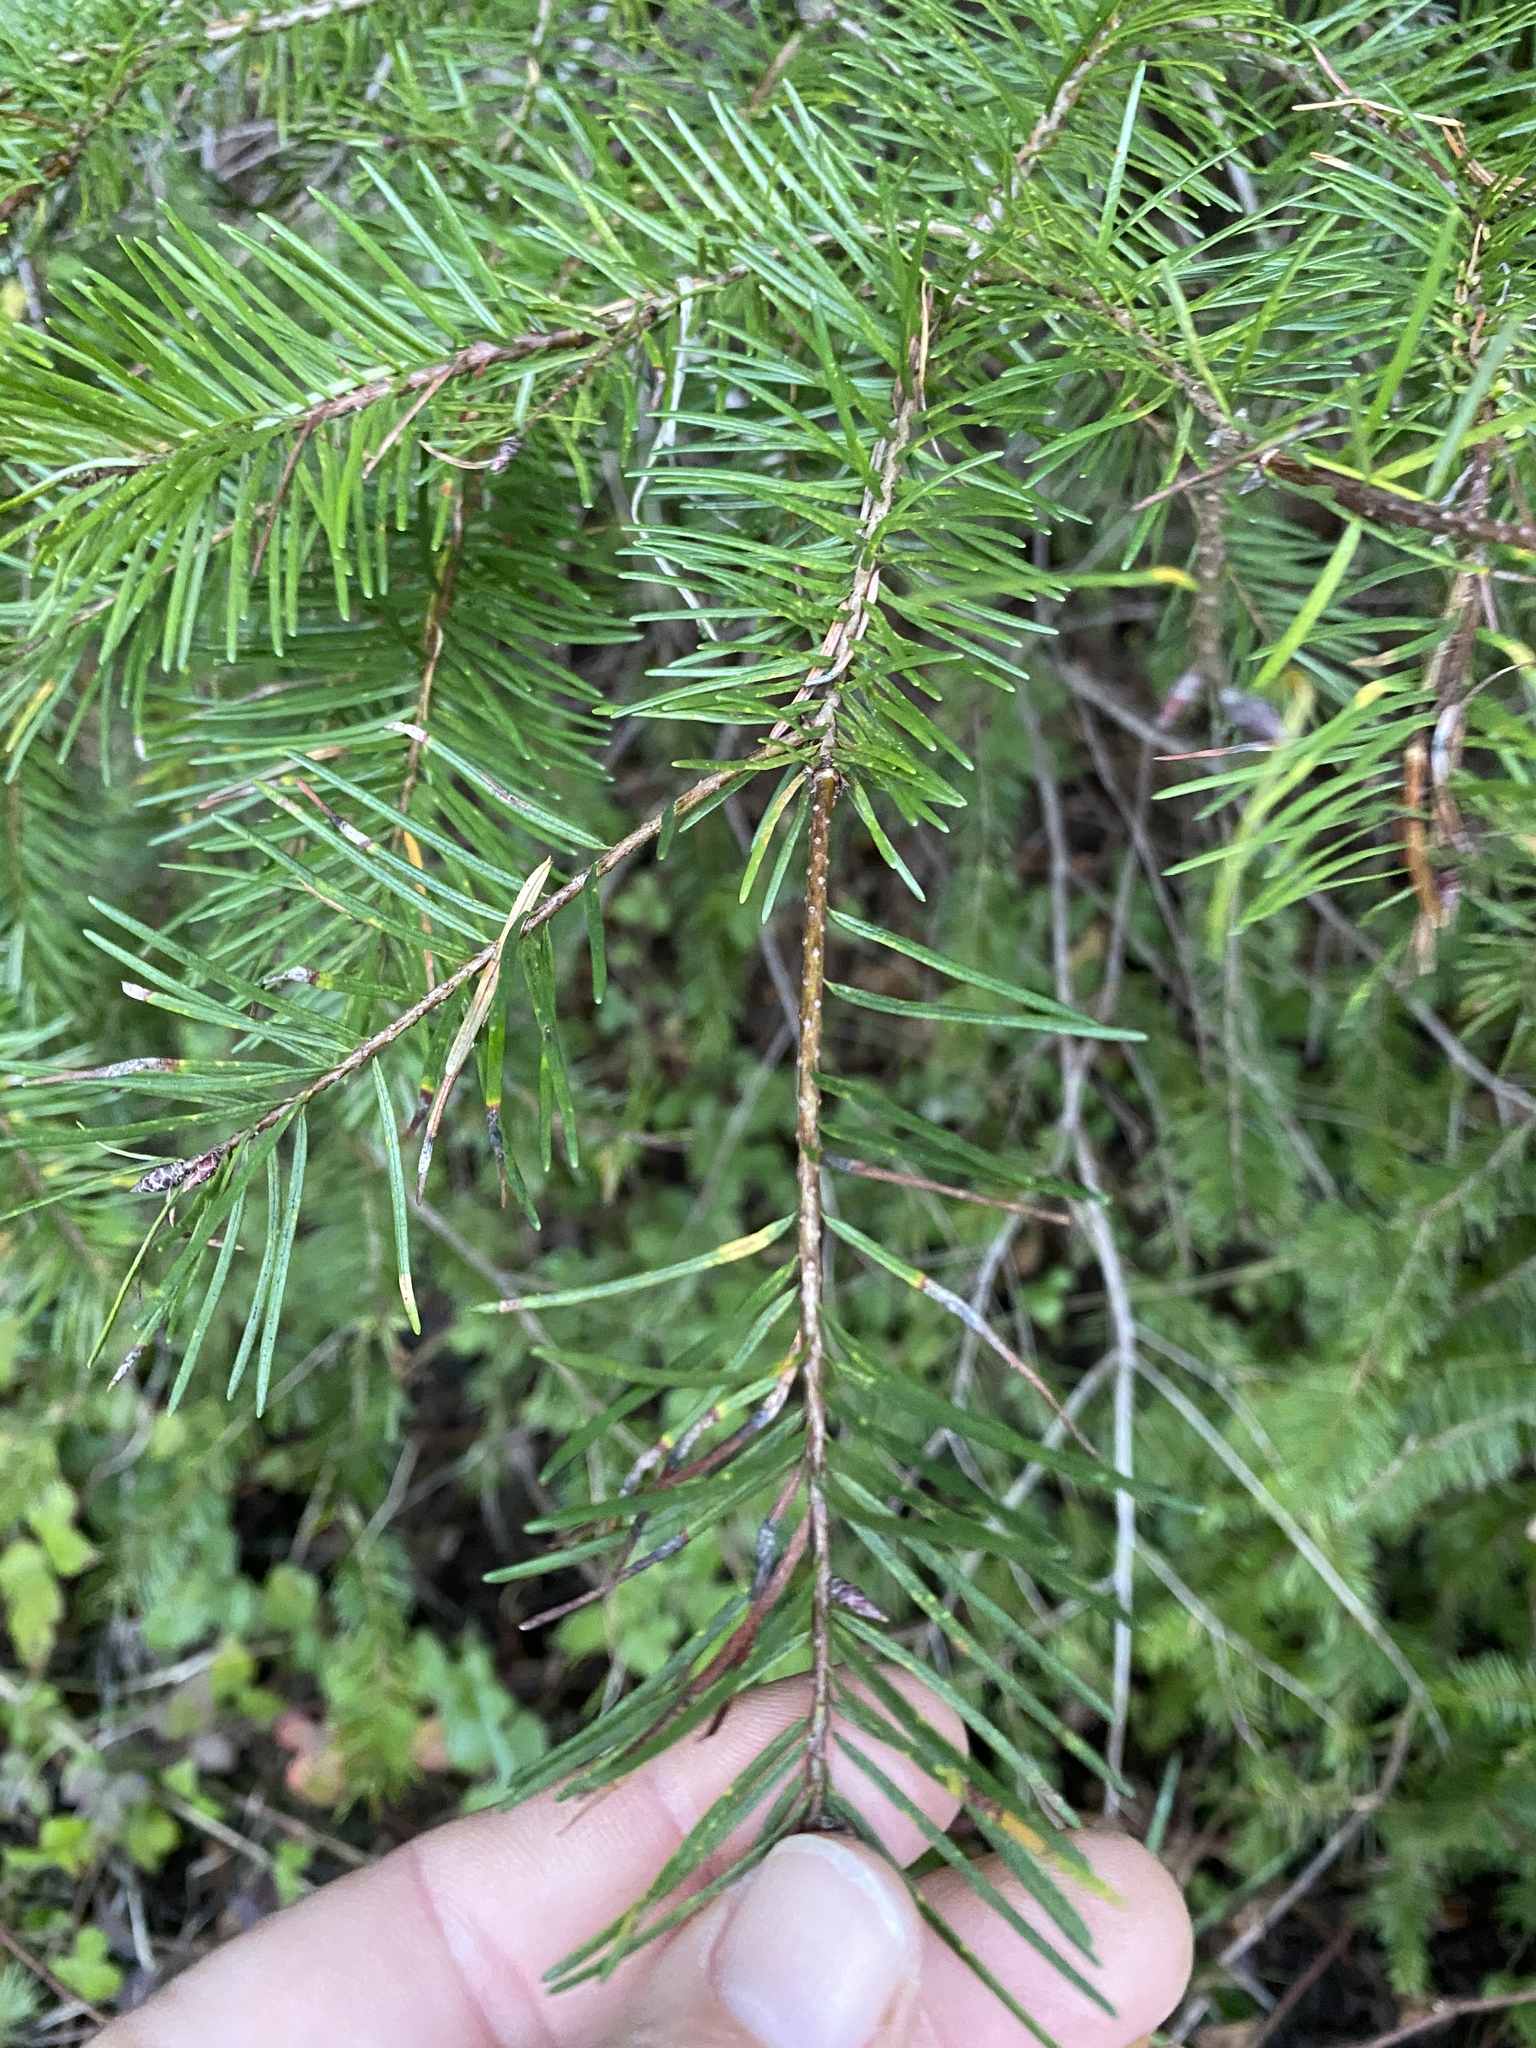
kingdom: Plantae
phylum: Tracheophyta
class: Pinopsida
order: Pinales
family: Pinaceae
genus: Pseudotsuga
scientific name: Pseudotsuga menziesii
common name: Douglas fir
